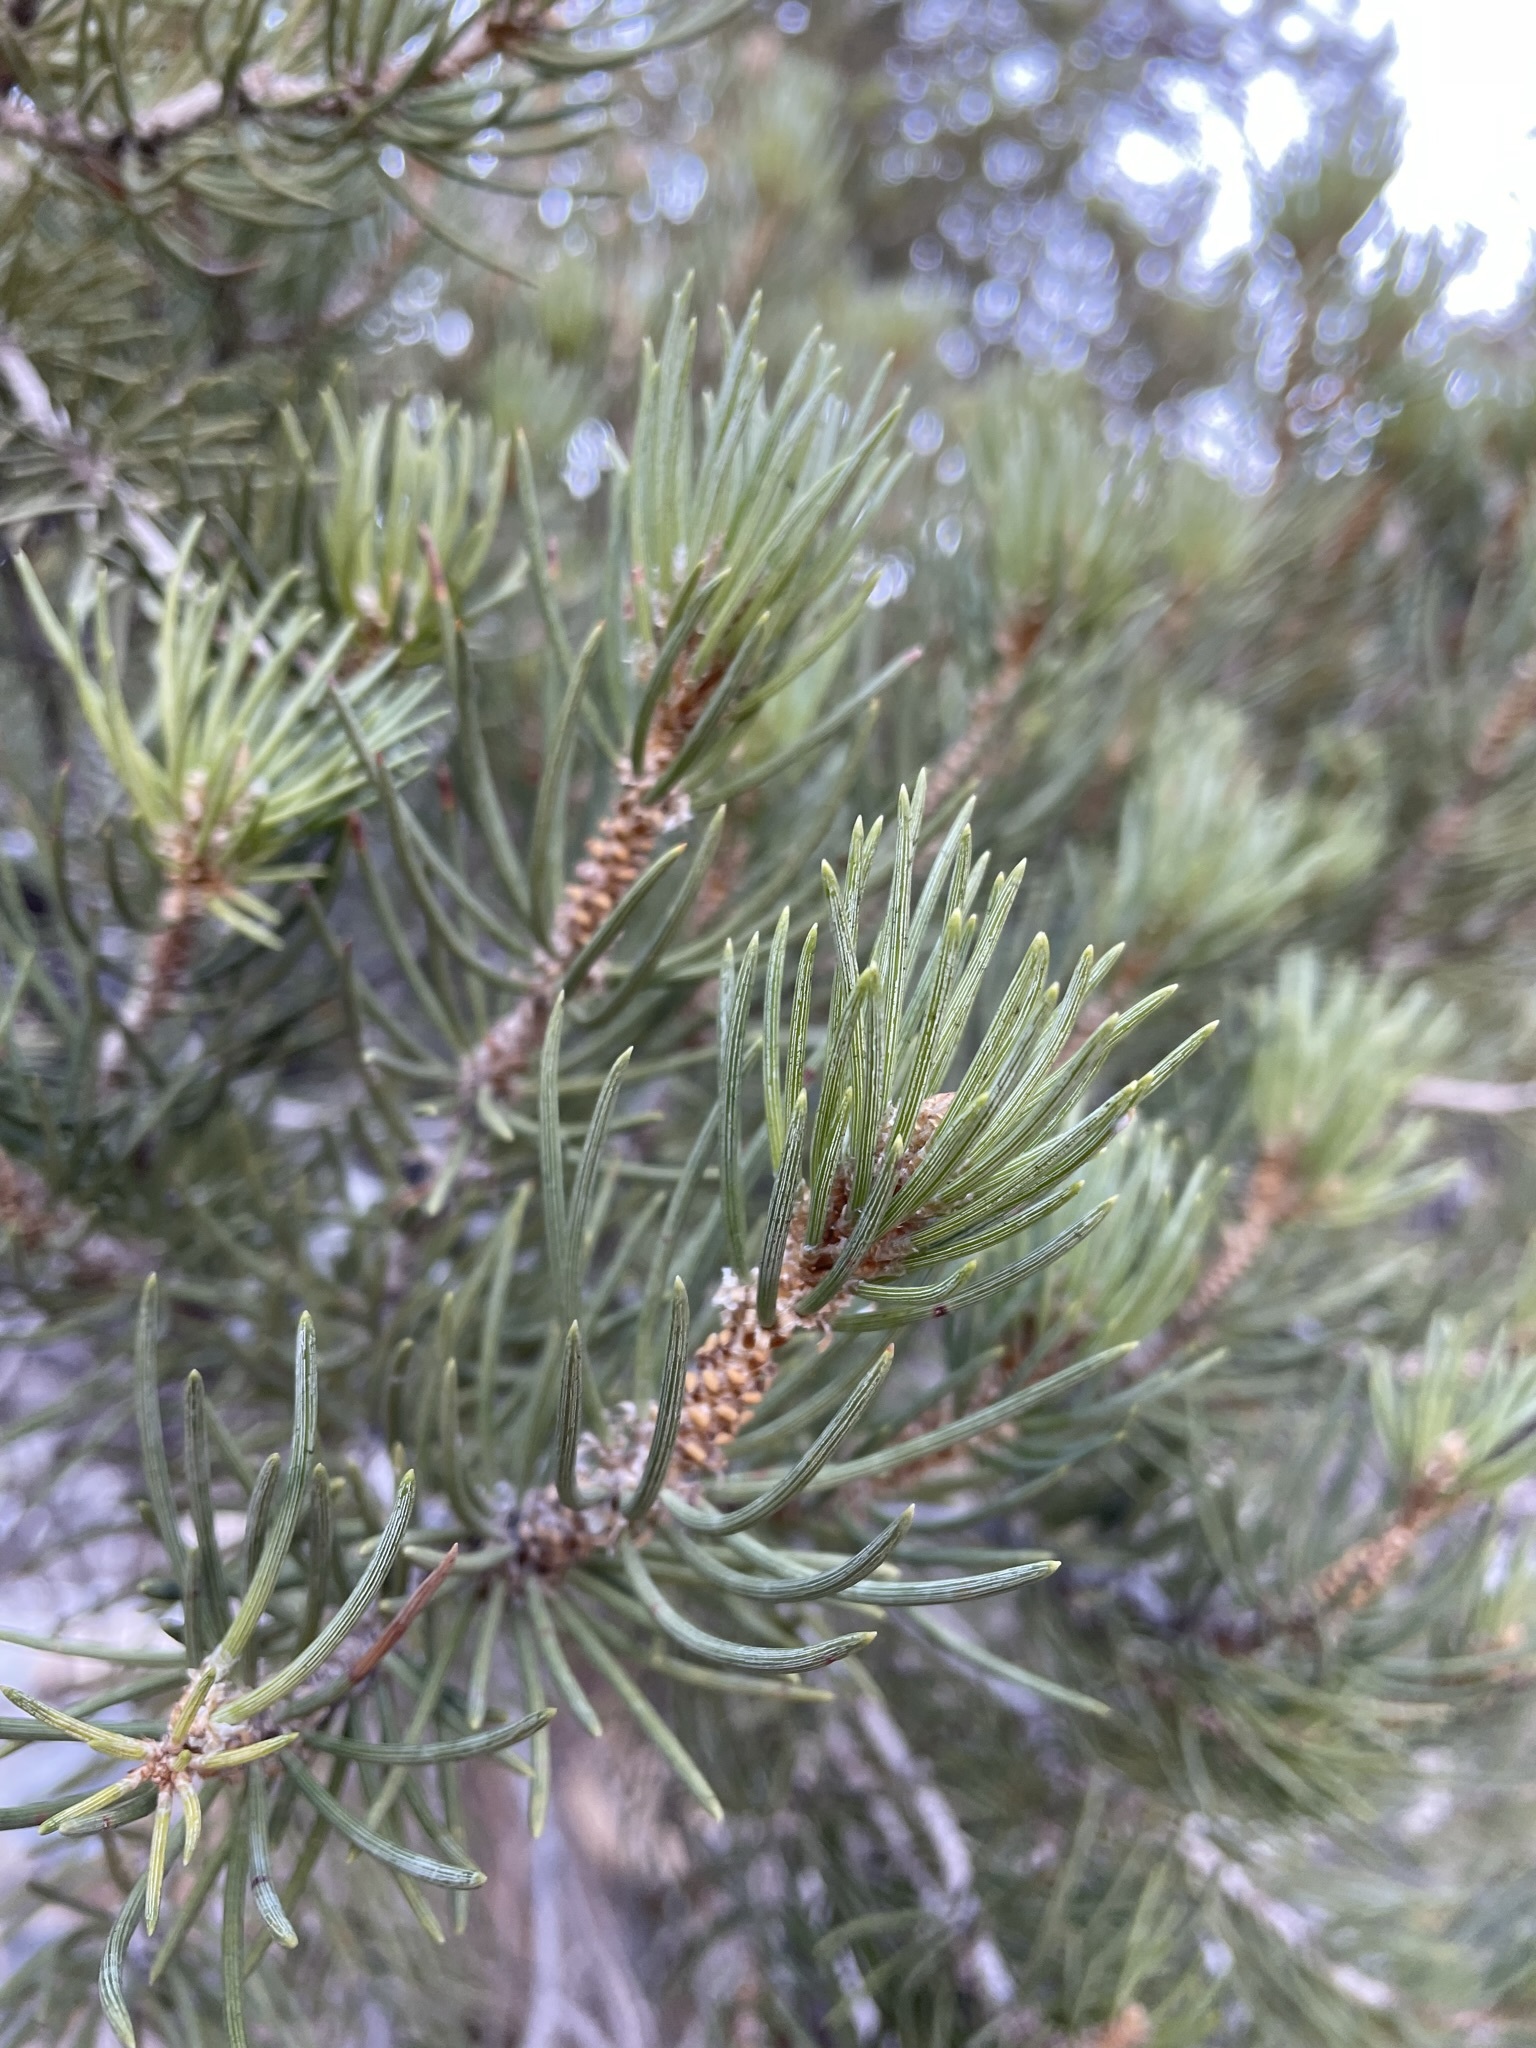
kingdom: Plantae
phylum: Tracheophyta
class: Pinopsida
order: Pinales
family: Pinaceae
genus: Pinus
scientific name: Pinus monophylla
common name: One-leaved nut pine
